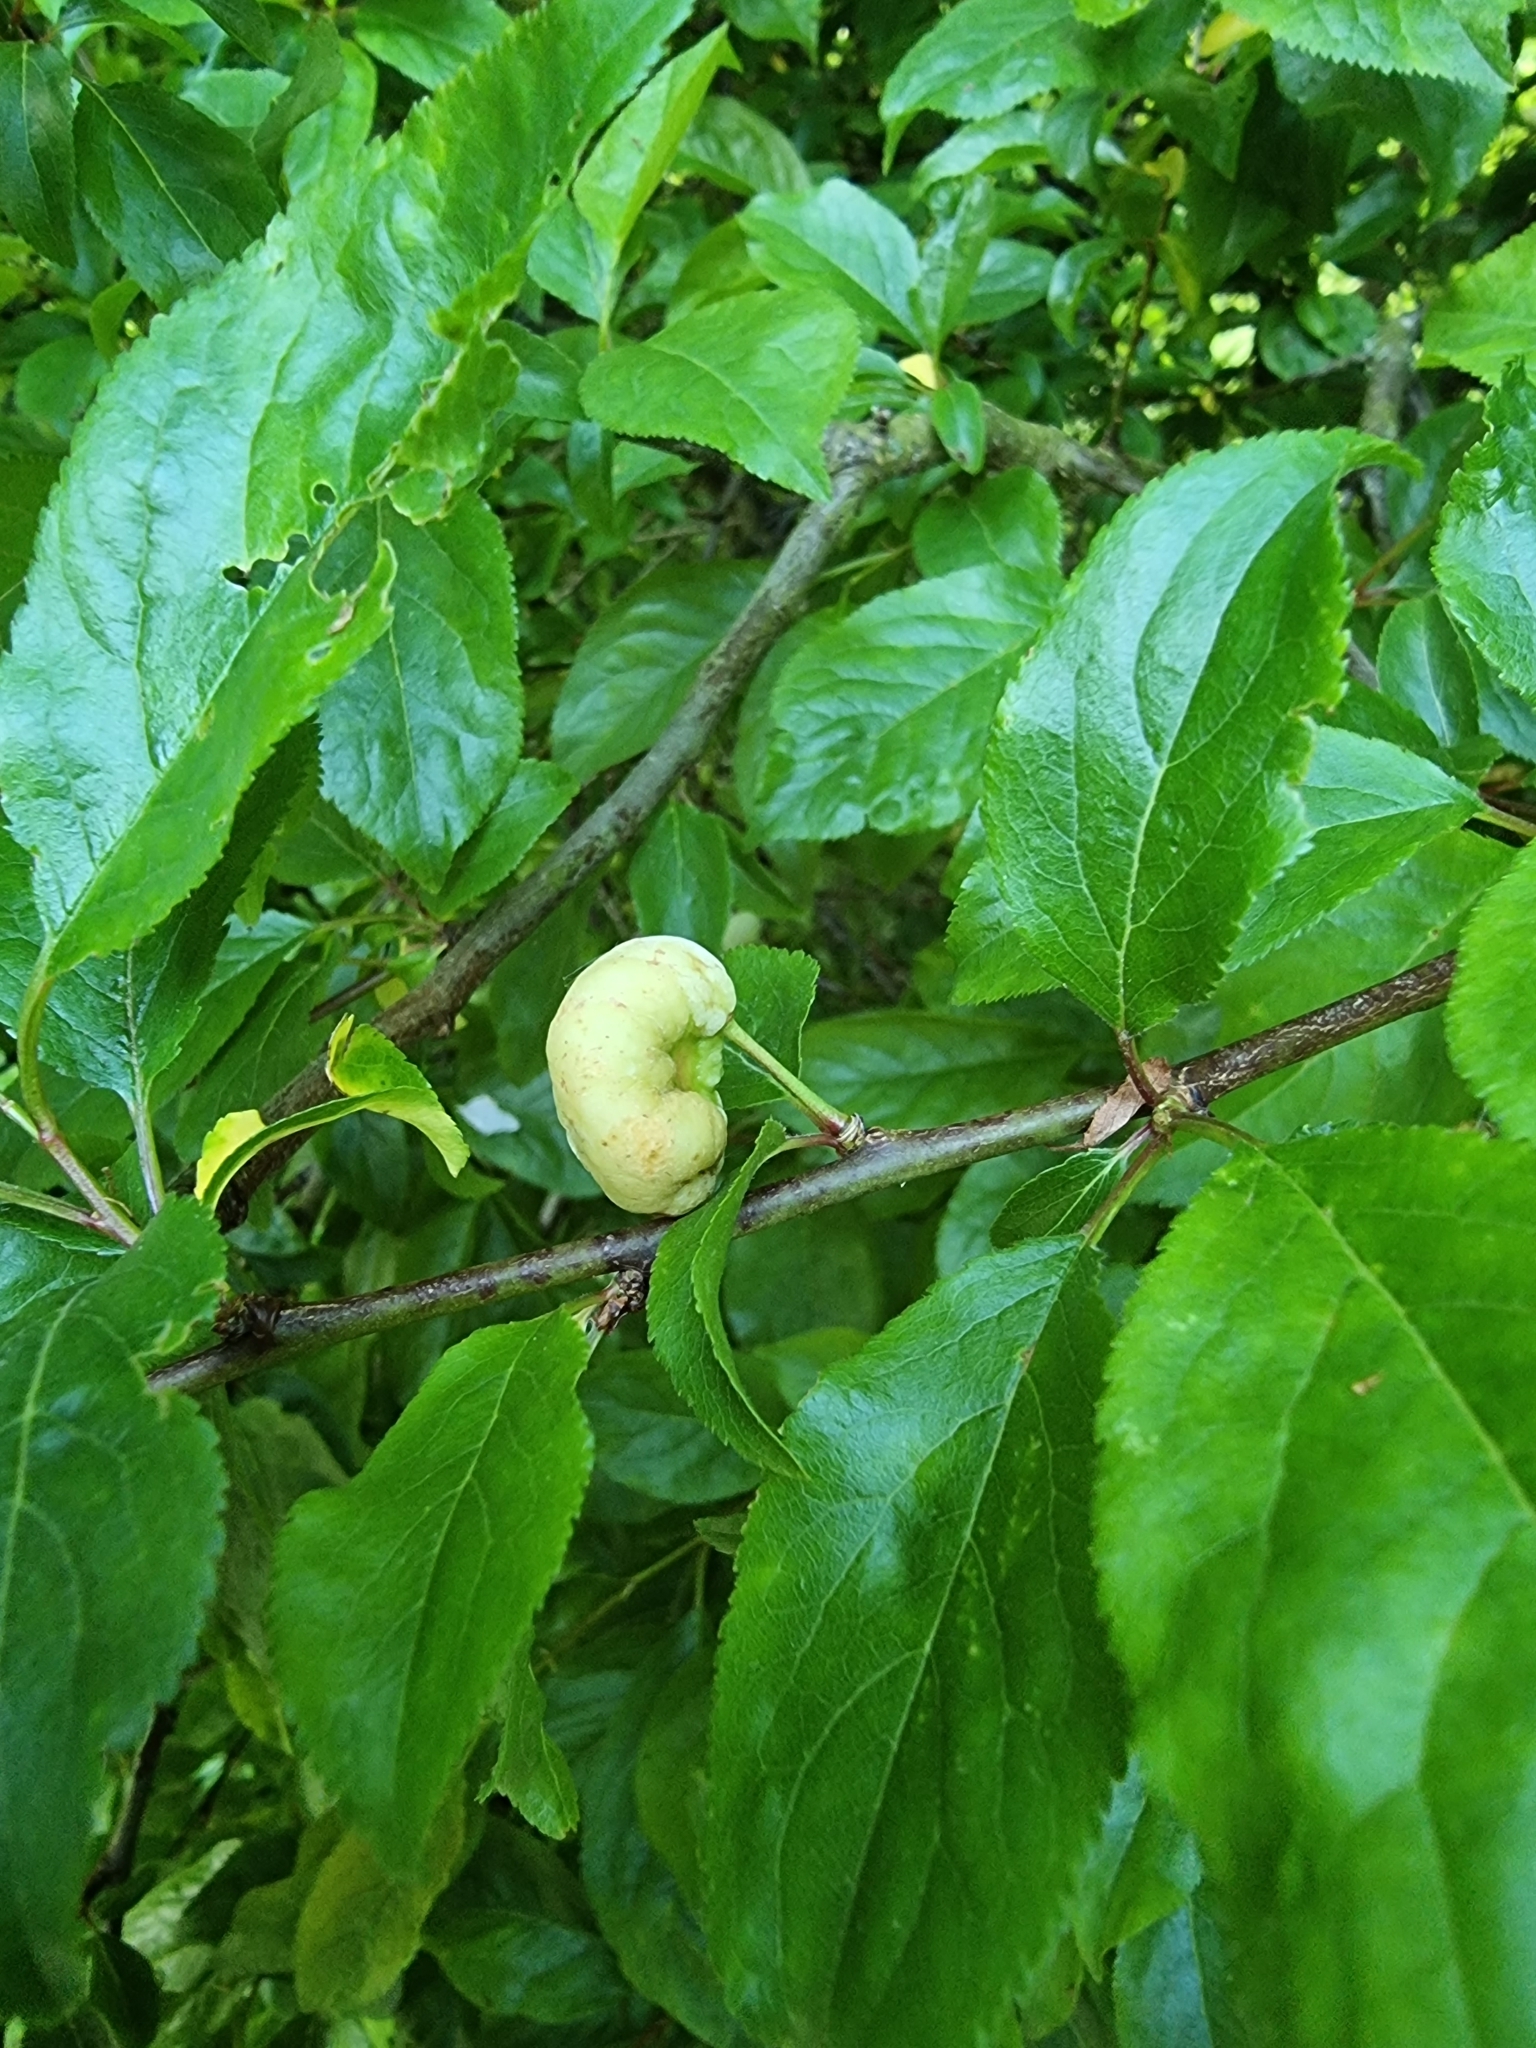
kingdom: Fungi
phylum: Ascomycota
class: Taphrinomycetes
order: Taphrinales
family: Taphrinaceae
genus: Taphrina
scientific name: Taphrina pruni
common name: Pocket plum
